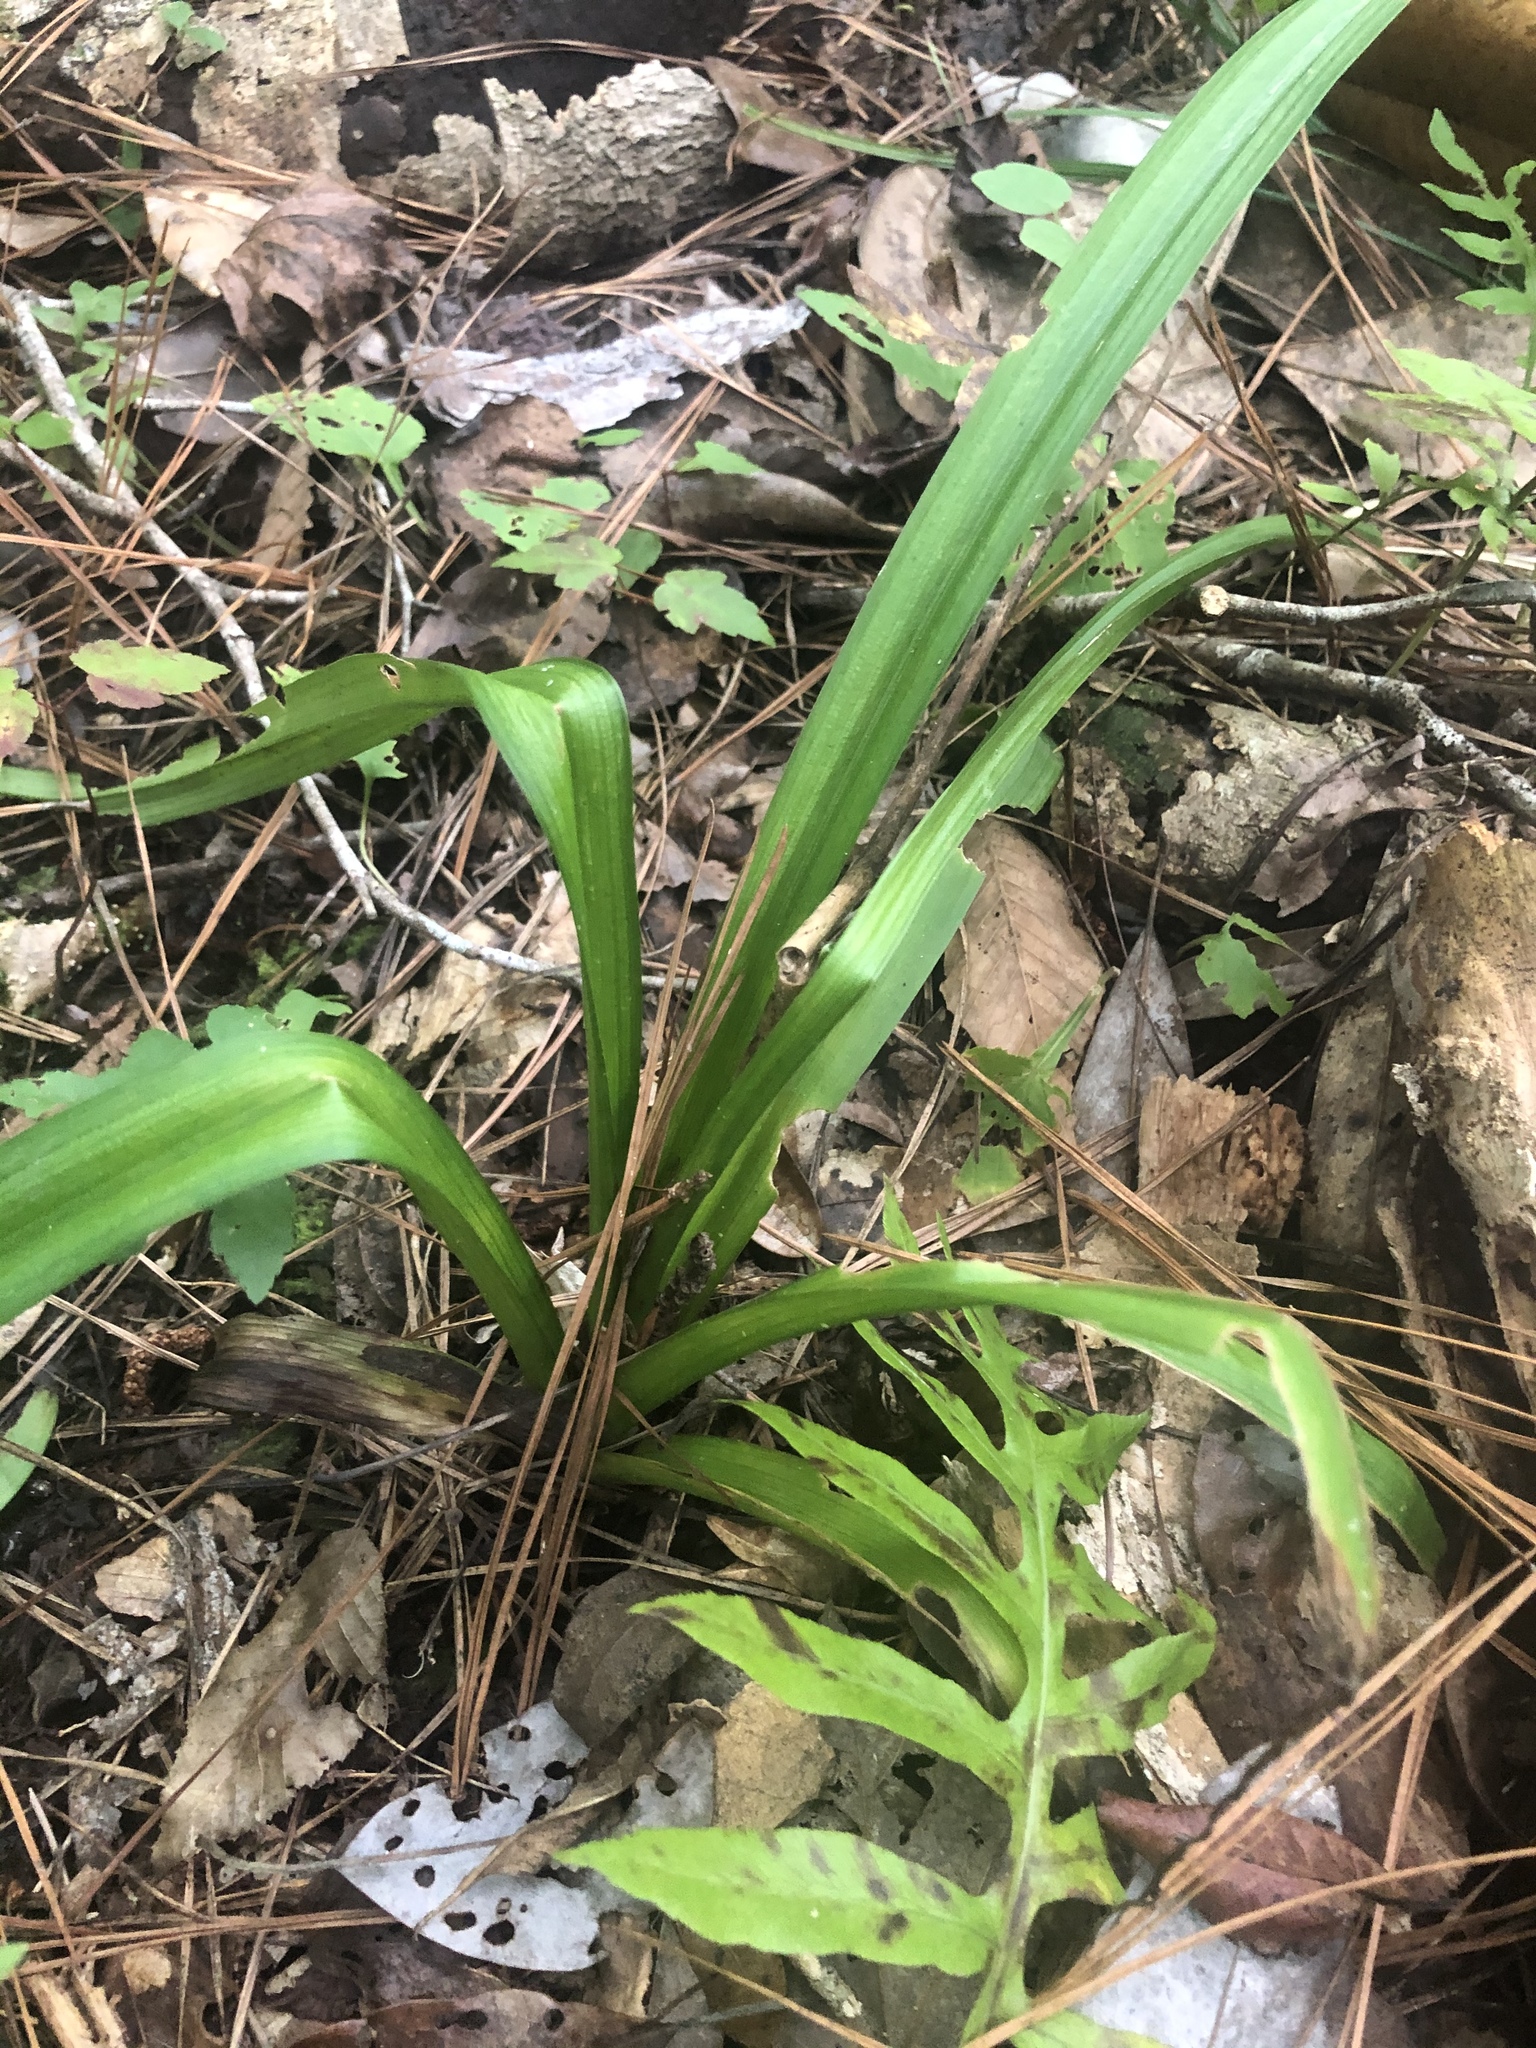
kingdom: Plantae
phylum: Tracheophyta
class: Liliopsida
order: Liliales
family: Melanthiaceae
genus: Melanthium
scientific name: Melanthium virginicum
